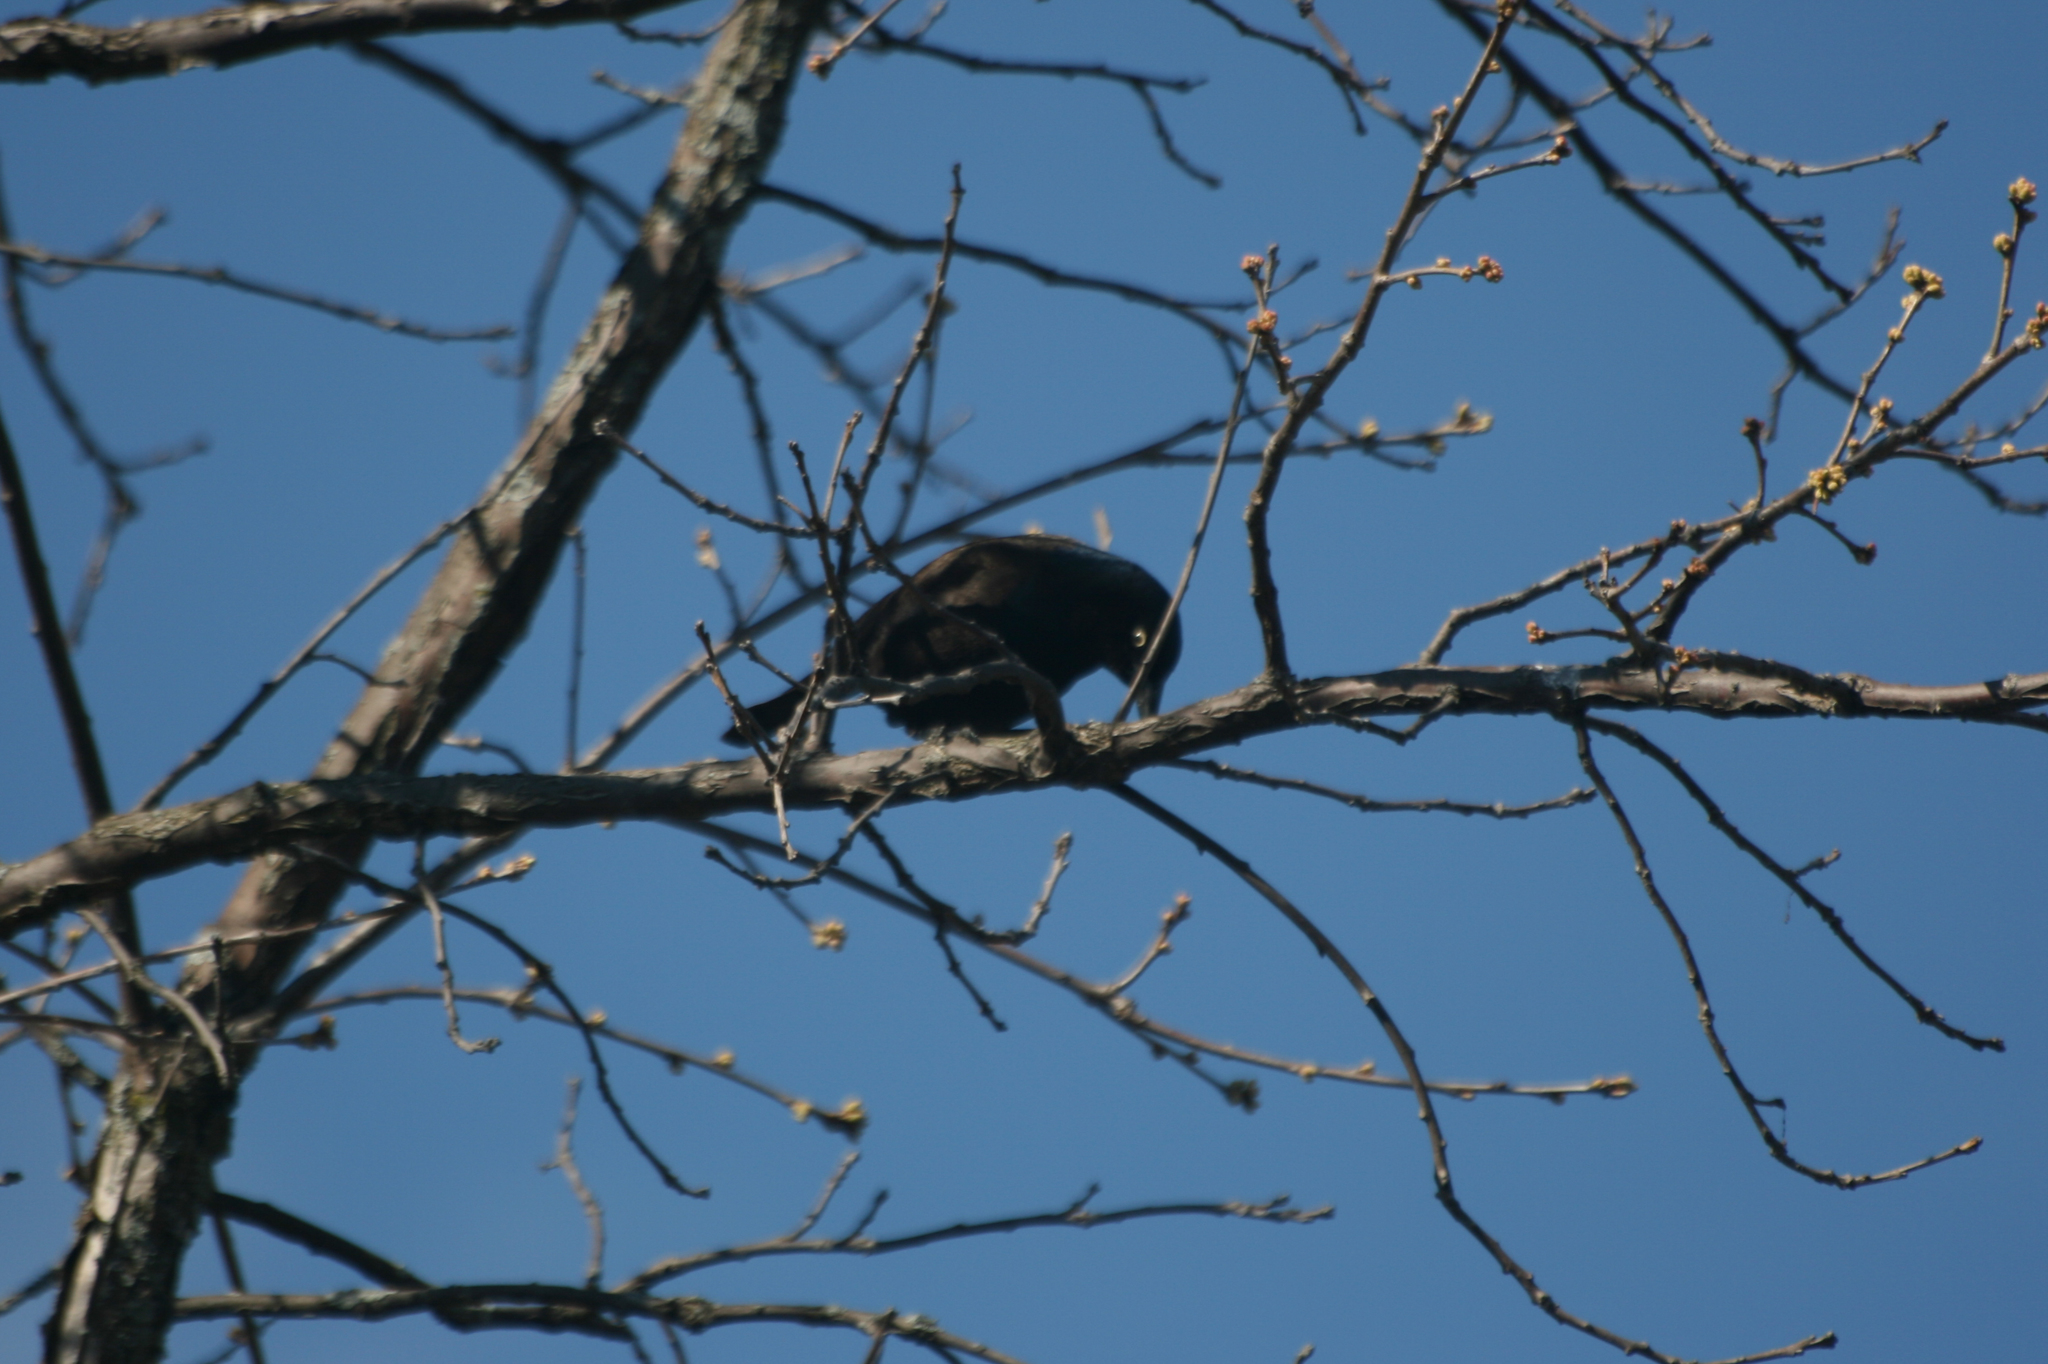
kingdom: Animalia
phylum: Chordata
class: Aves
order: Passeriformes
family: Icteridae
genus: Quiscalus
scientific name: Quiscalus quiscula
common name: Common grackle
